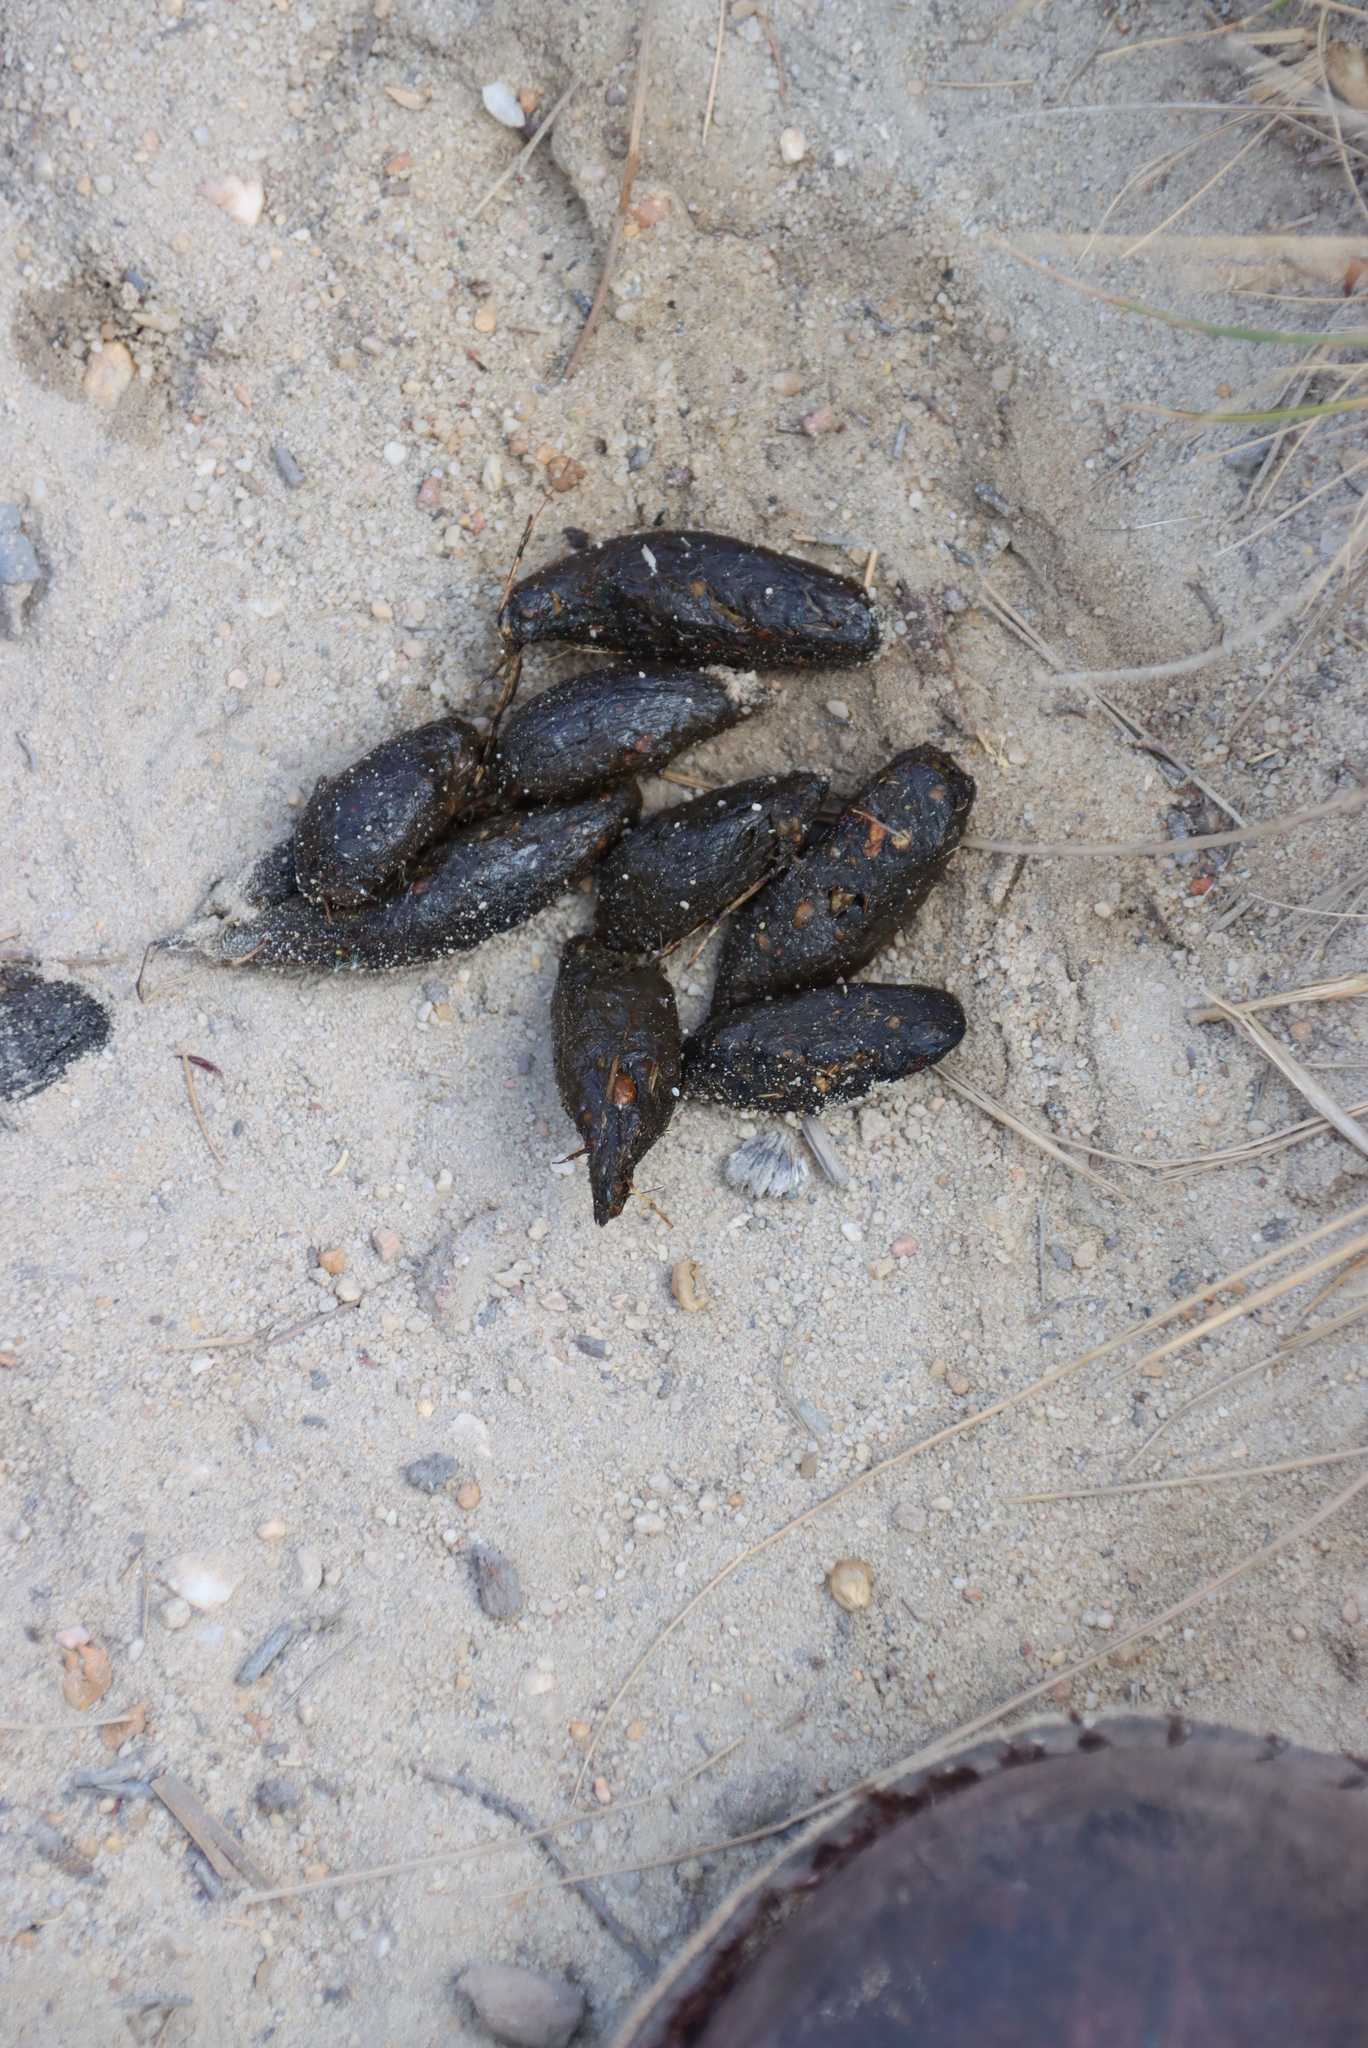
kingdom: Animalia
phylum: Chordata
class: Mammalia
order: Rodentia
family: Hystricidae
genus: Hystrix
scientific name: Hystrix africaeaustralis
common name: Cape porcupine
